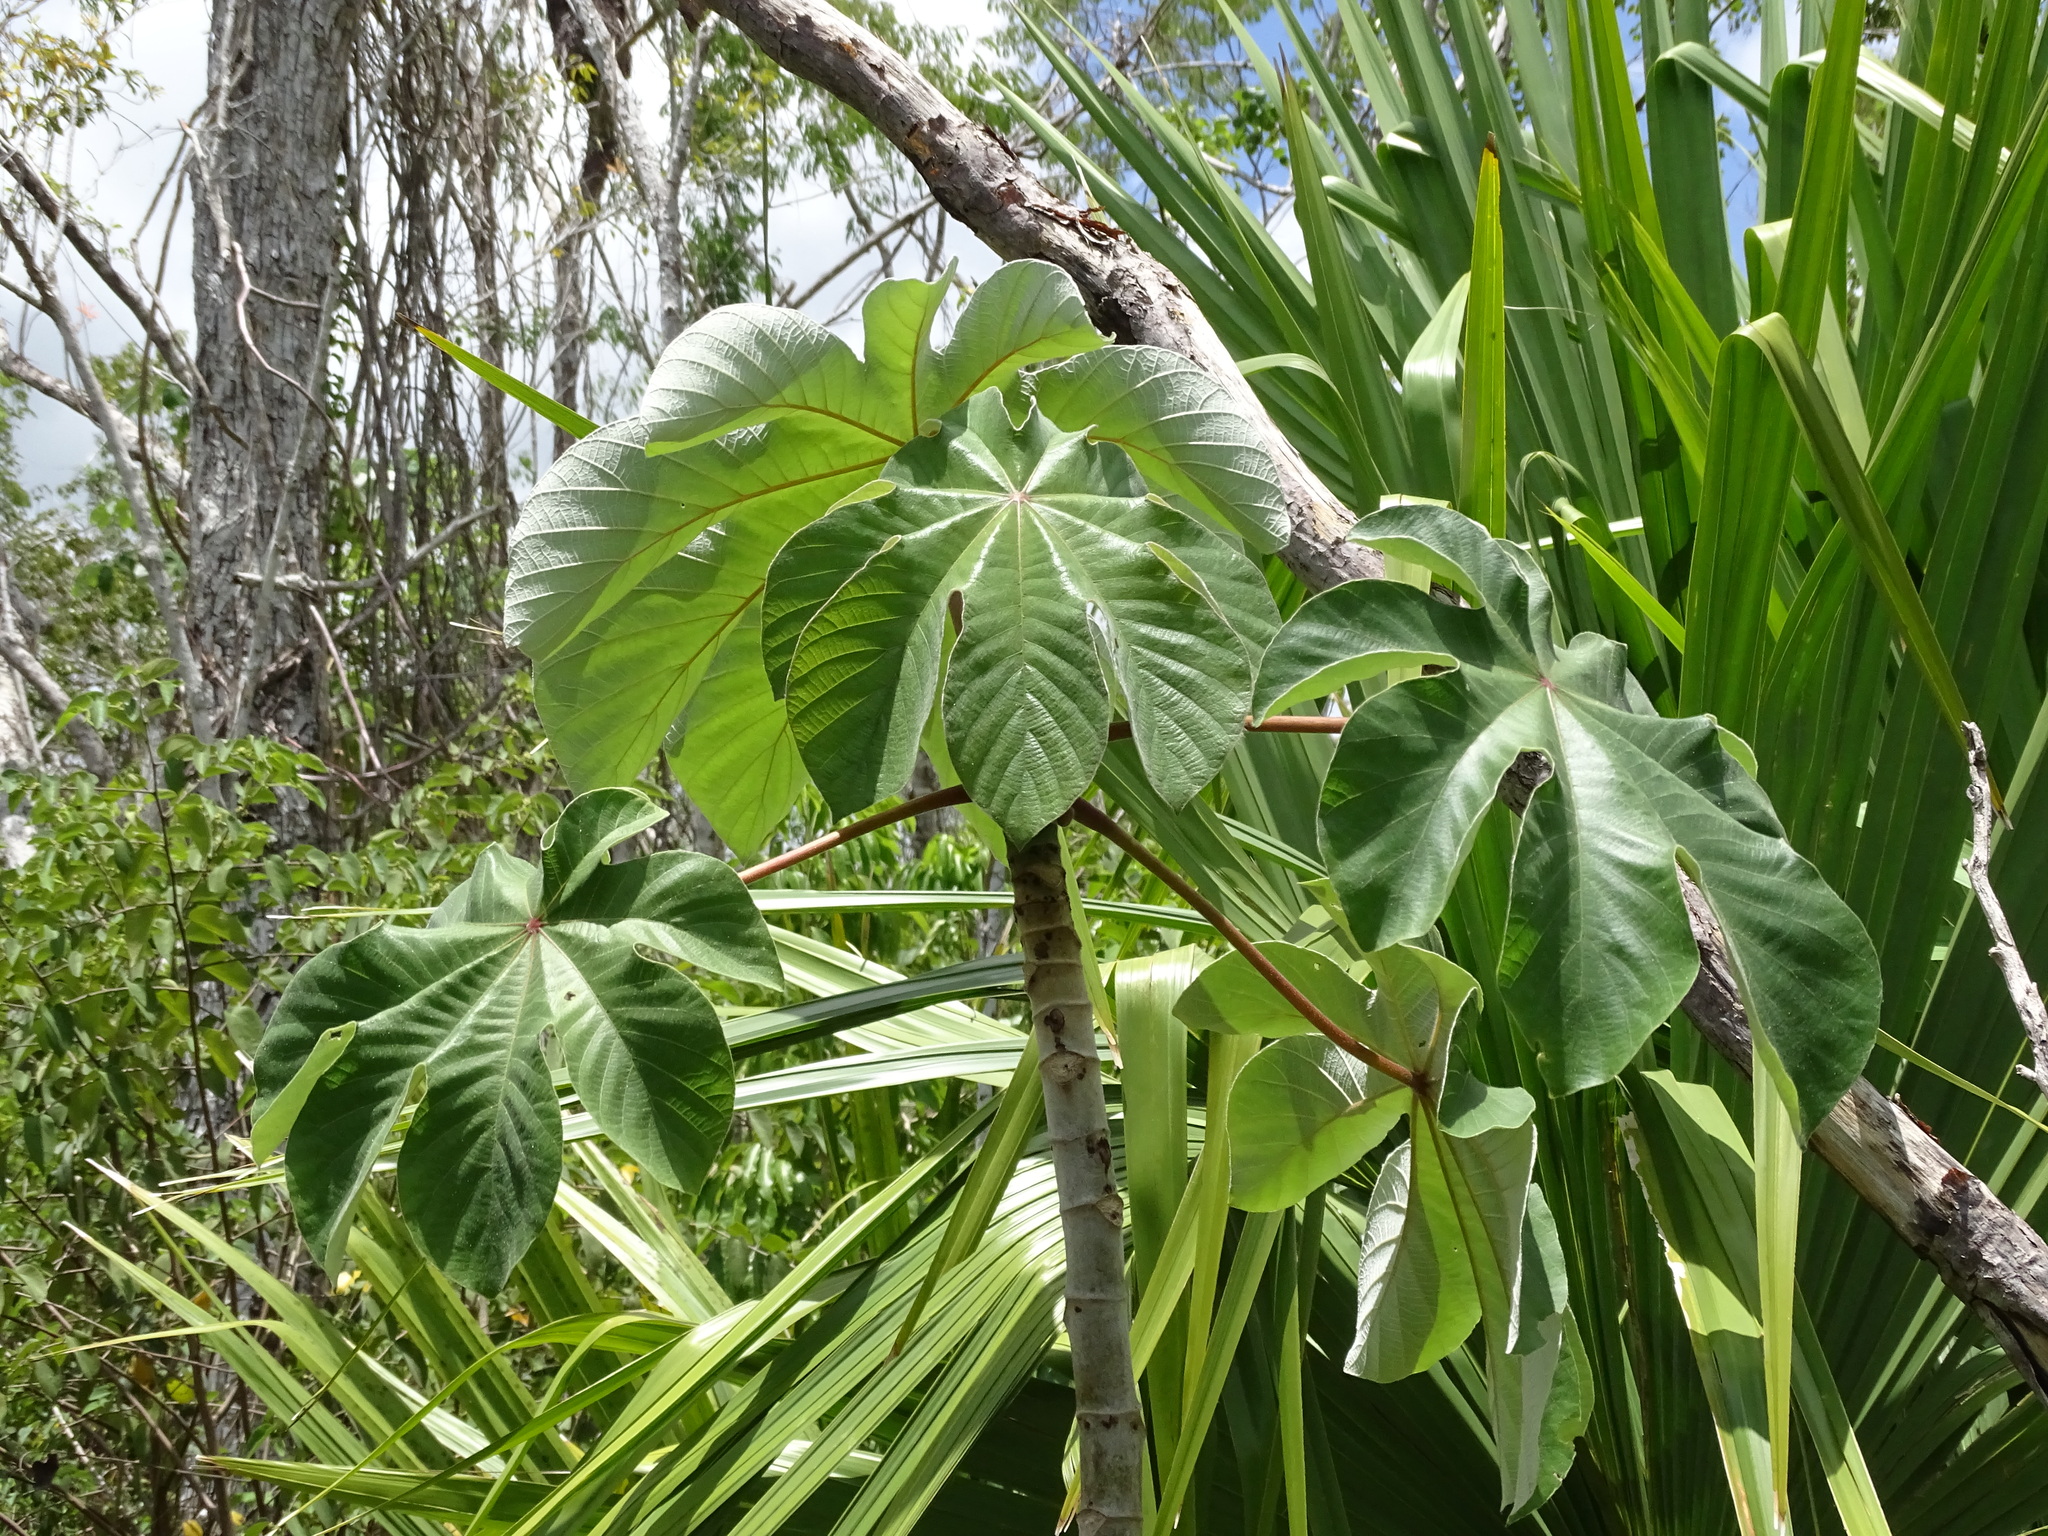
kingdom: Plantae
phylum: Tracheophyta
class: Magnoliopsida
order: Rosales
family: Urticaceae
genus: Cecropia
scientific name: Cecropia peltata
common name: Trumpet-tree
